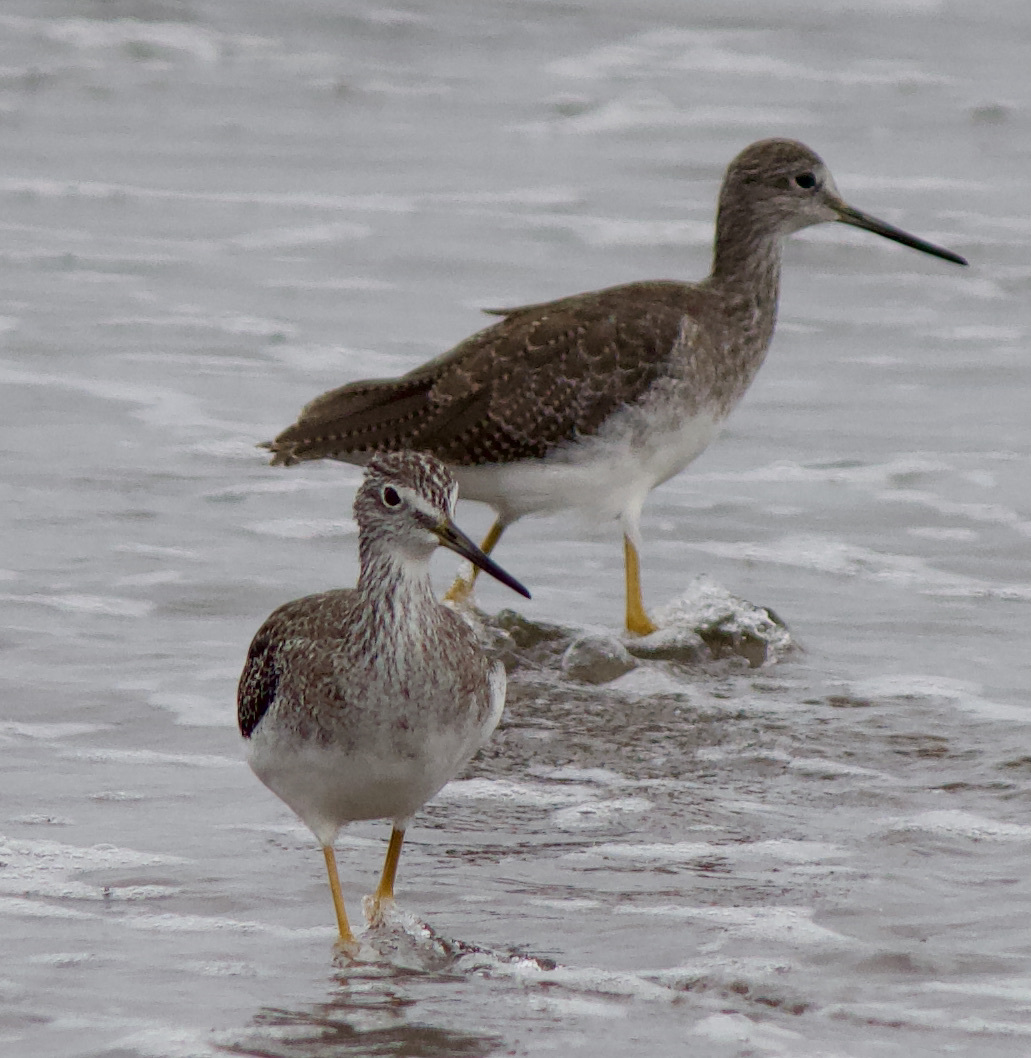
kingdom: Animalia
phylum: Chordata
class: Aves
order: Charadriiformes
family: Scolopacidae
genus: Tringa
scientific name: Tringa melanoleuca
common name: Greater yellowlegs
